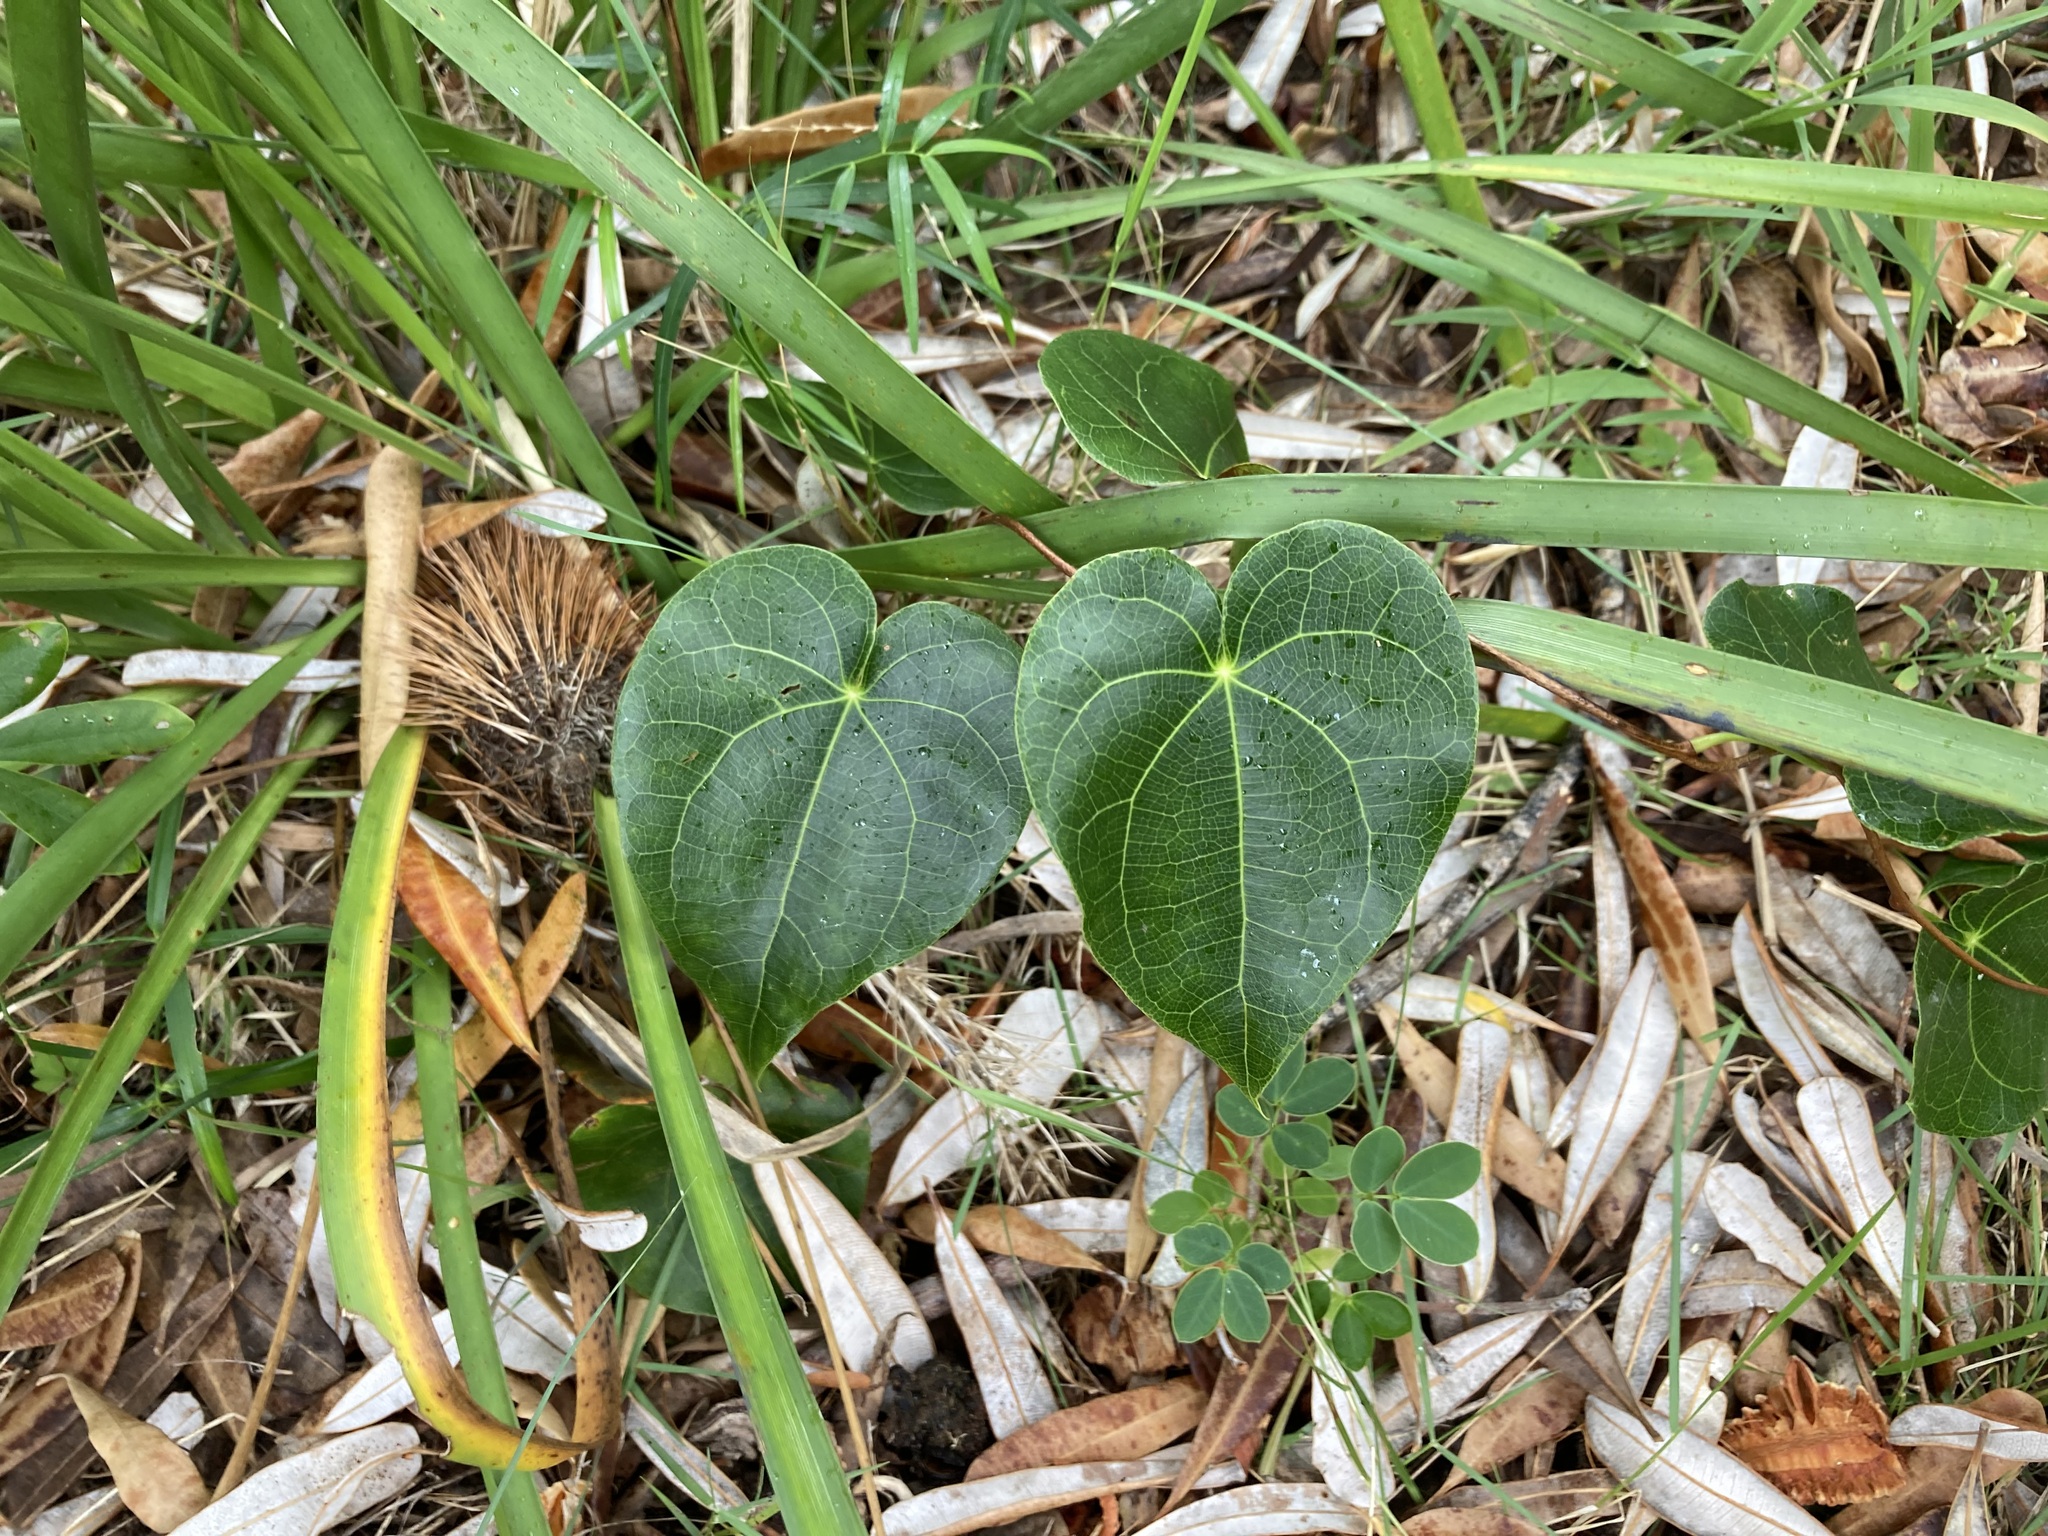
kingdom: Plantae
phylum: Tracheophyta
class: Magnoliopsida
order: Ranunculales
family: Menispermaceae
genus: Sarcopetalum
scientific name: Sarcopetalum harveyanum
